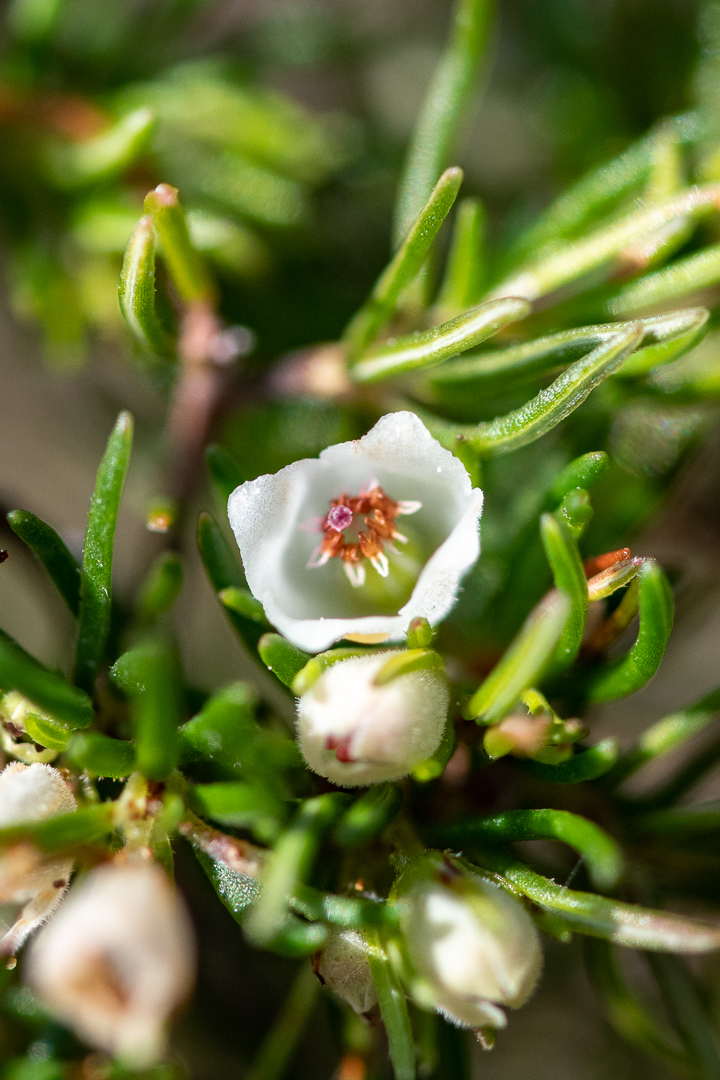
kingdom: Plantae
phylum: Tracheophyta
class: Magnoliopsida
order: Ericales
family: Ericaceae
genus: Erica
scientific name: Erica aemula
